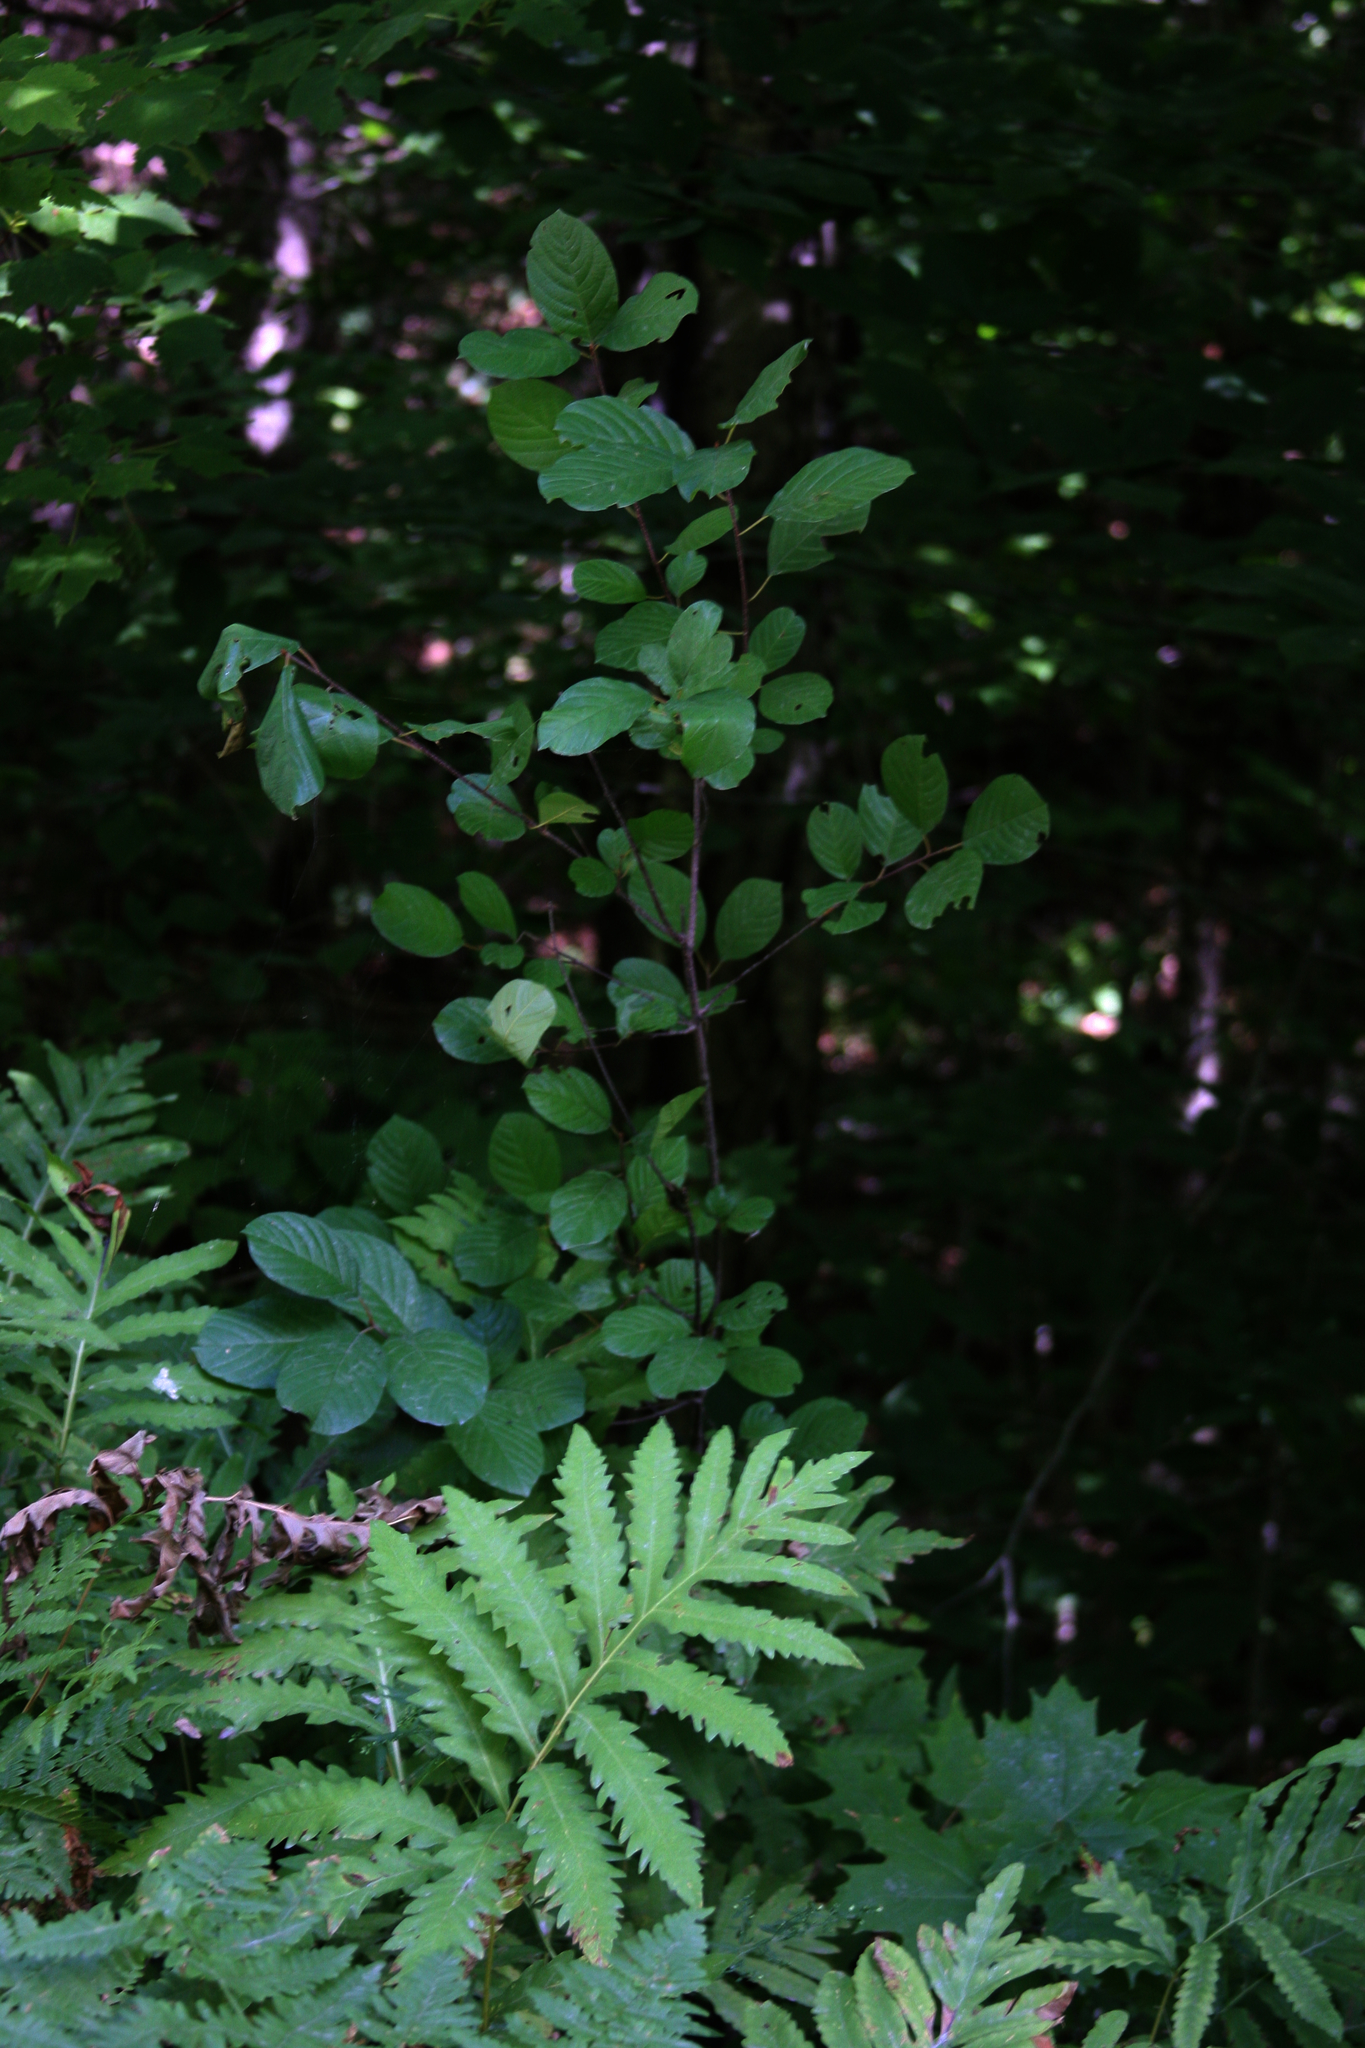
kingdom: Plantae
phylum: Tracheophyta
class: Magnoliopsida
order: Rosales
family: Rhamnaceae
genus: Frangula
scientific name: Frangula alnus
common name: Alder buckthorn
